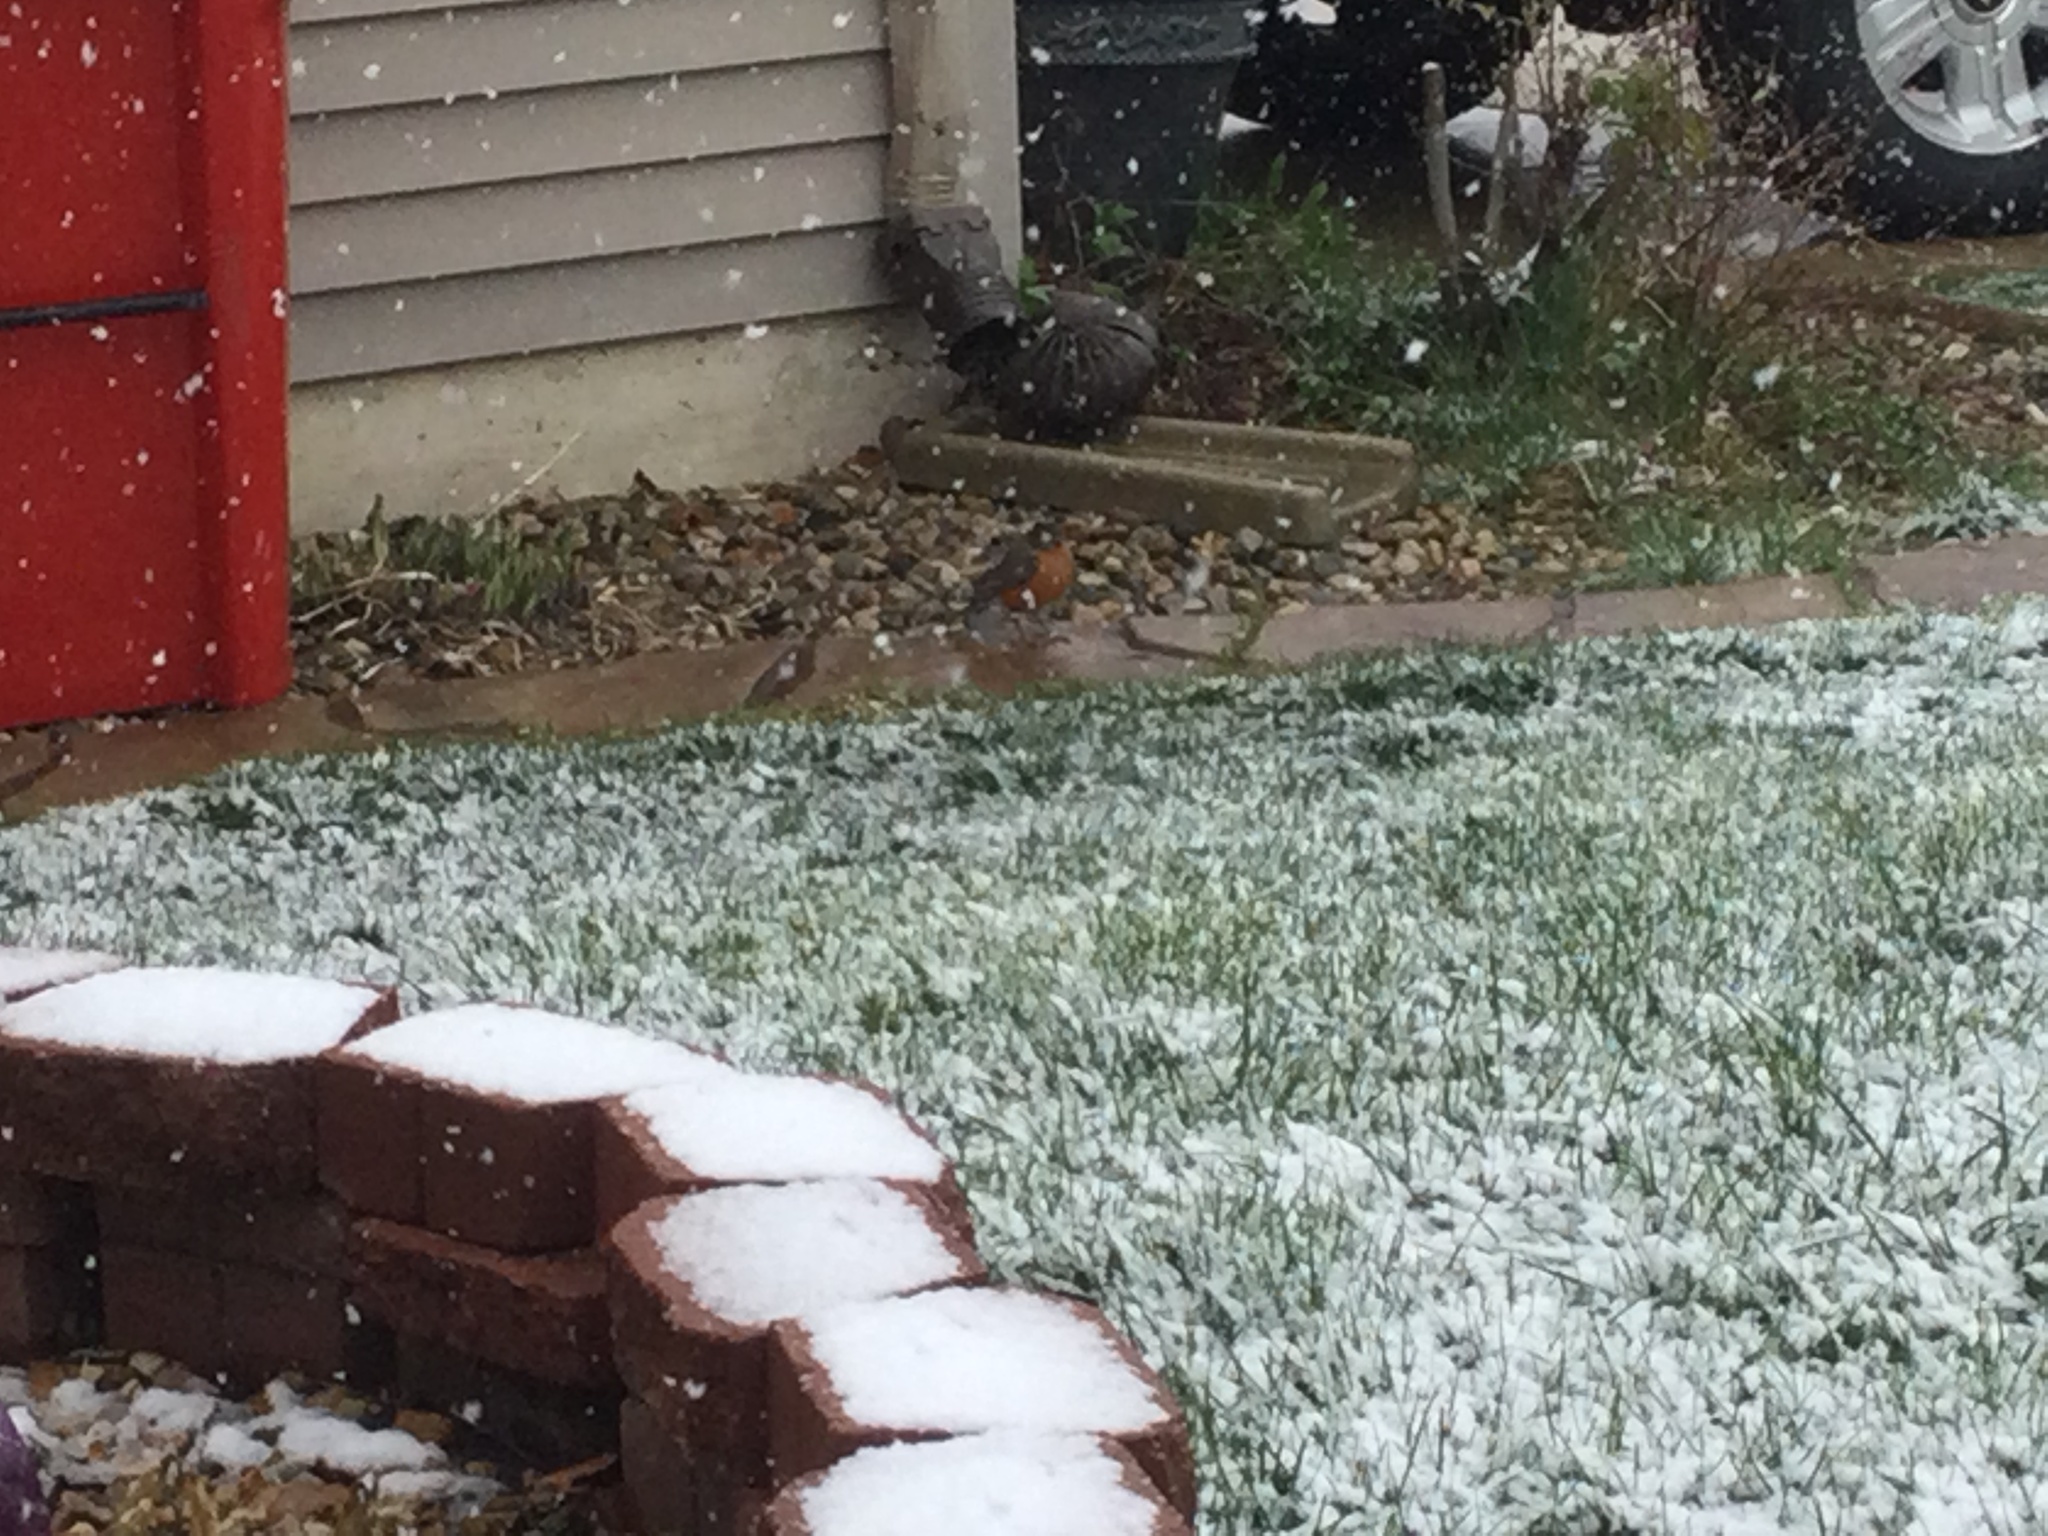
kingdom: Animalia
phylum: Chordata
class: Aves
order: Passeriformes
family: Turdidae
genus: Turdus
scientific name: Turdus migratorius
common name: American robin
